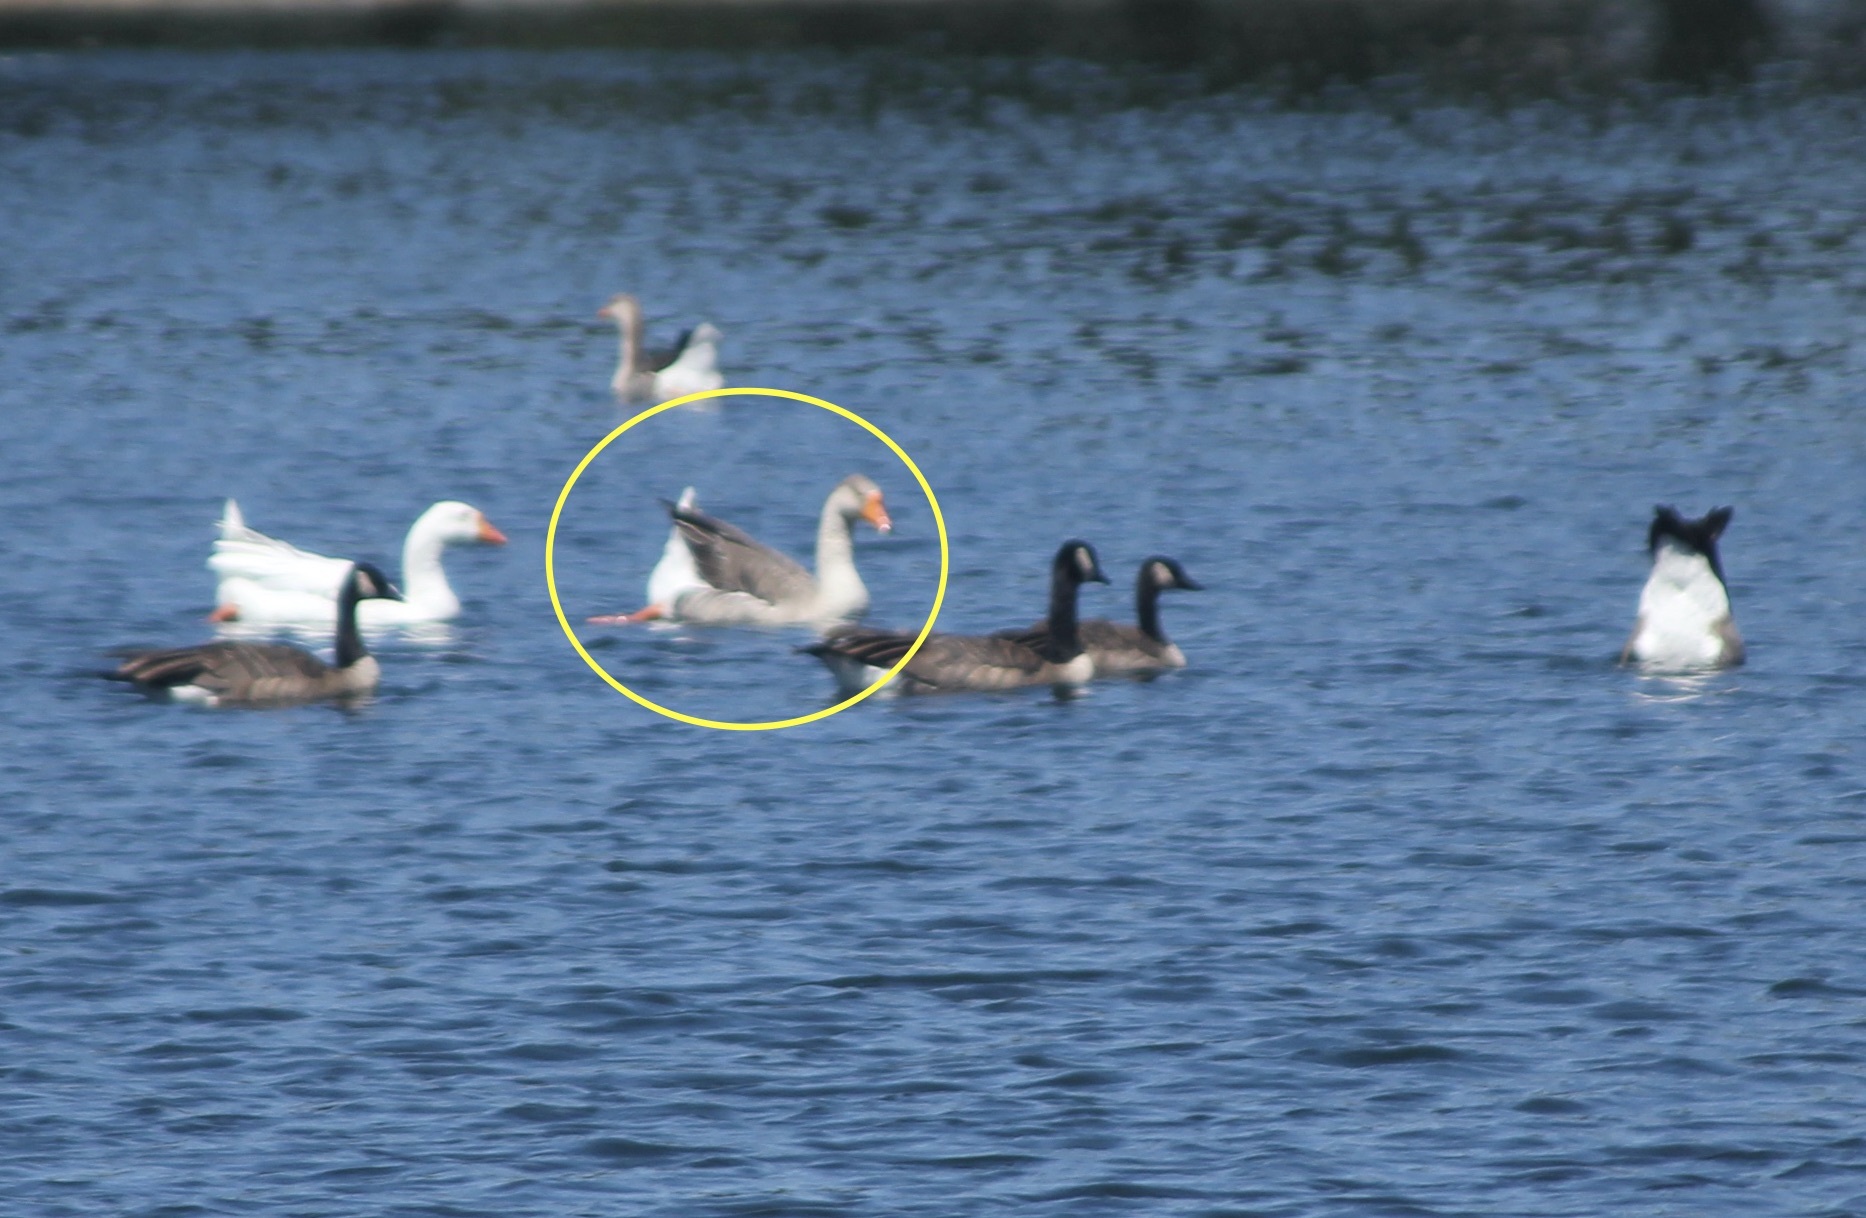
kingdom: Animalia
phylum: Chordata
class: Aves
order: Anseriformes
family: Anatidae
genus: Anser
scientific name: Anser
